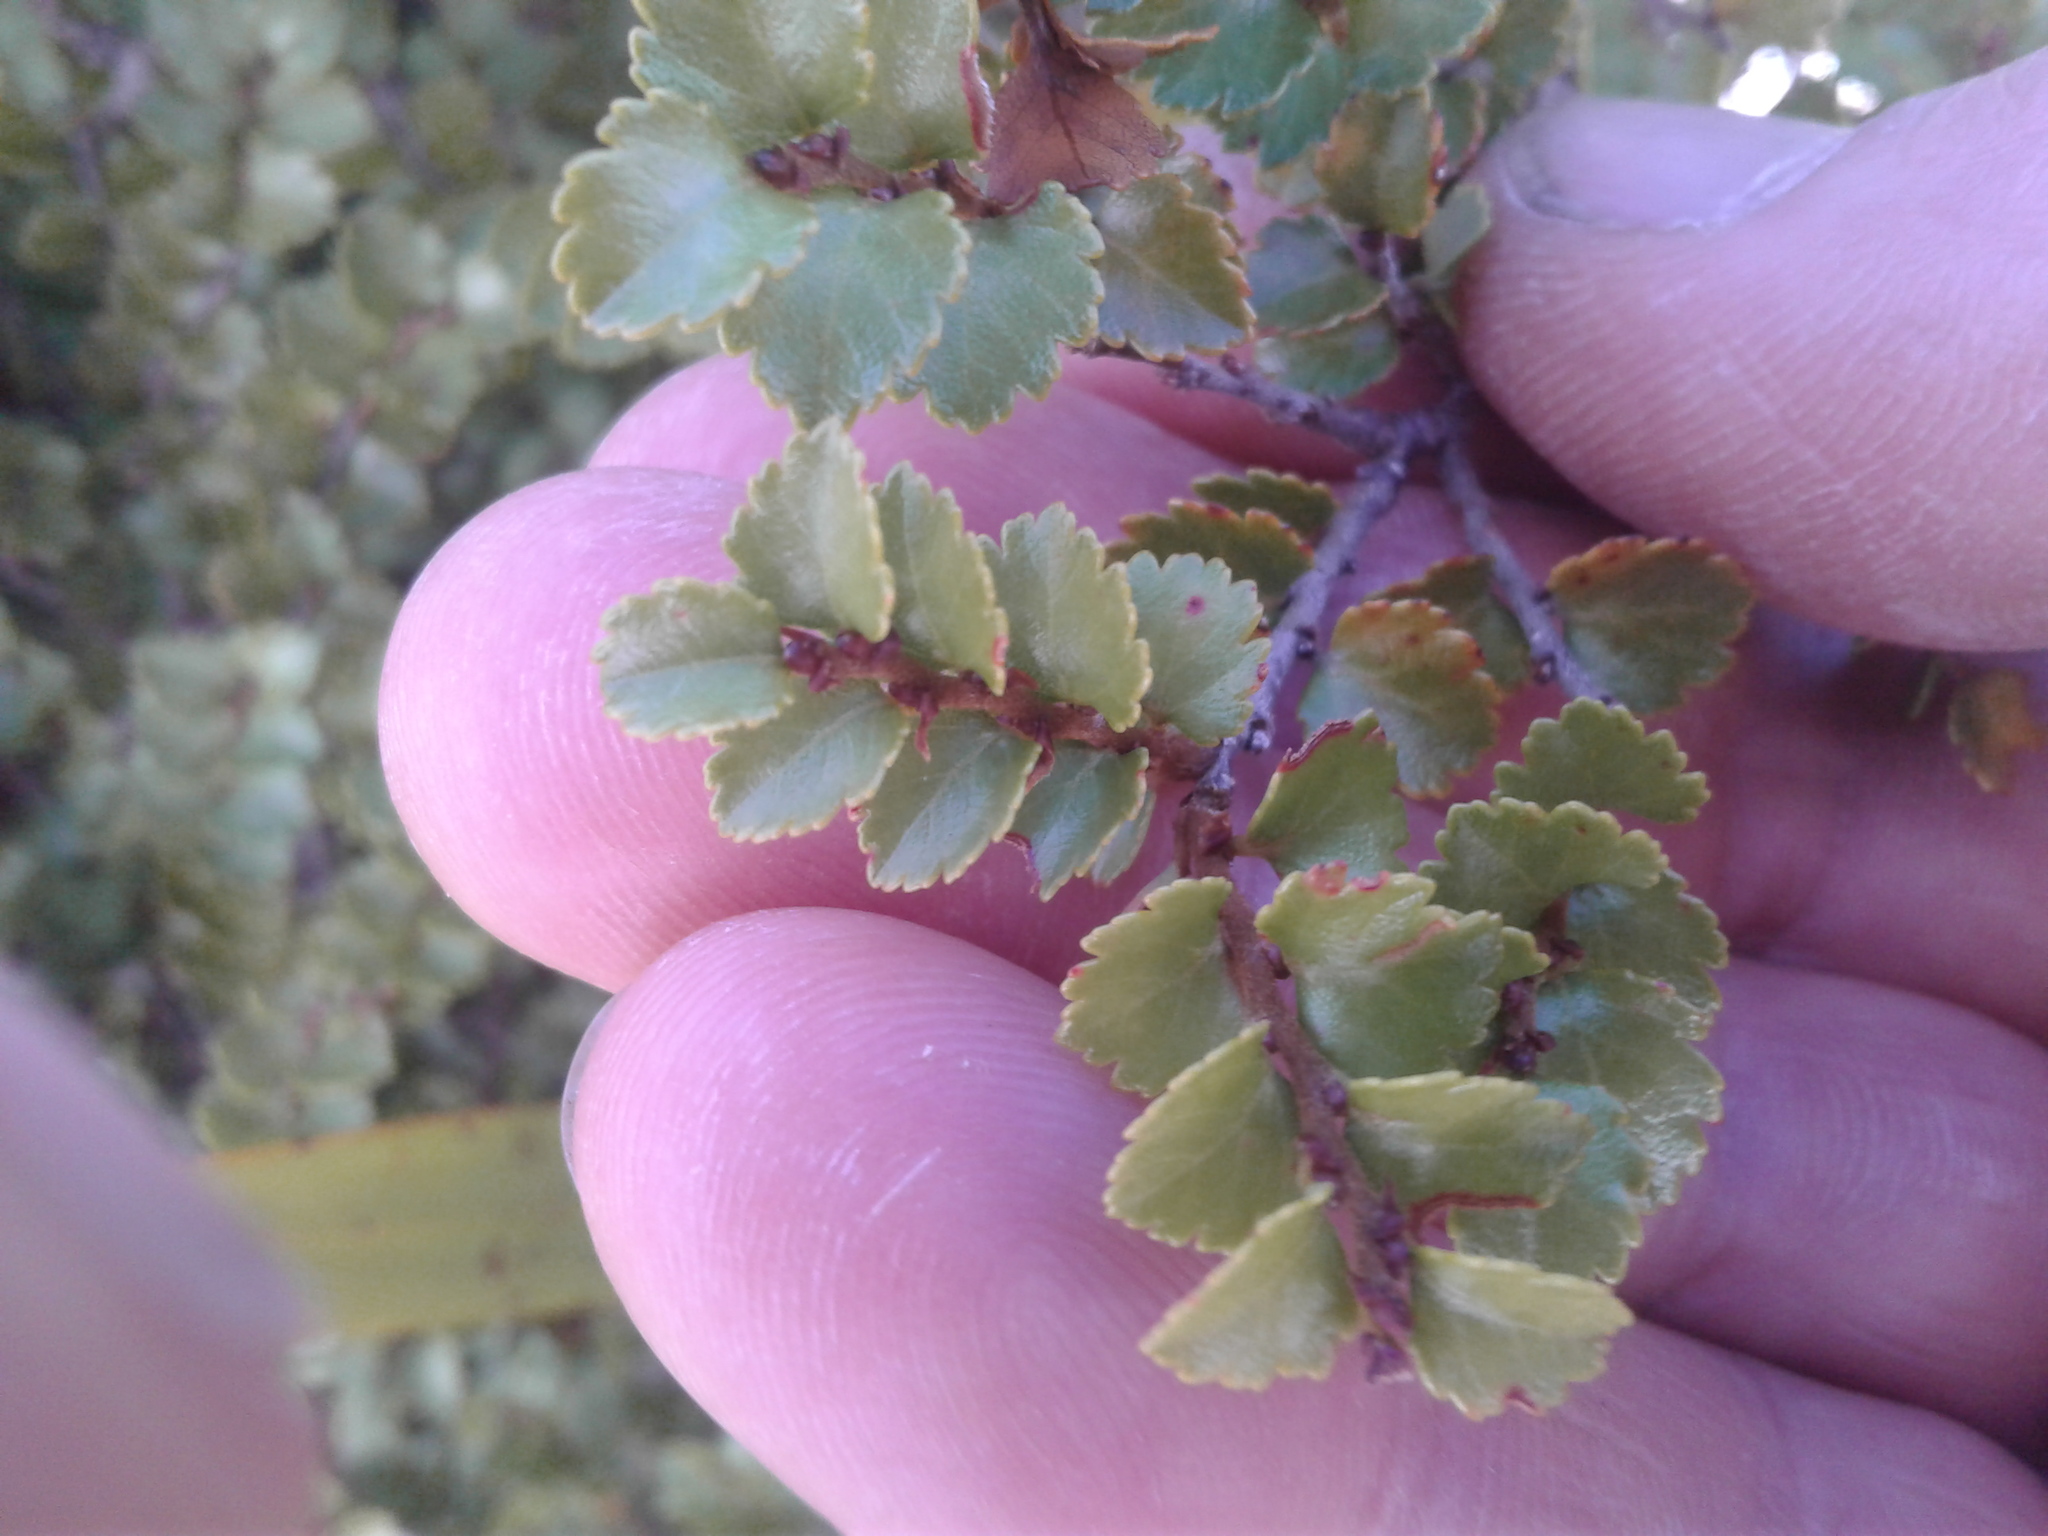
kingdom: Plantae
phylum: Tracheophyta
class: Magnoliopsida
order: Fagales
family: Nothofagaceae
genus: Nothofagus
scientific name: Nothofagus menziesii
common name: Silver beech
